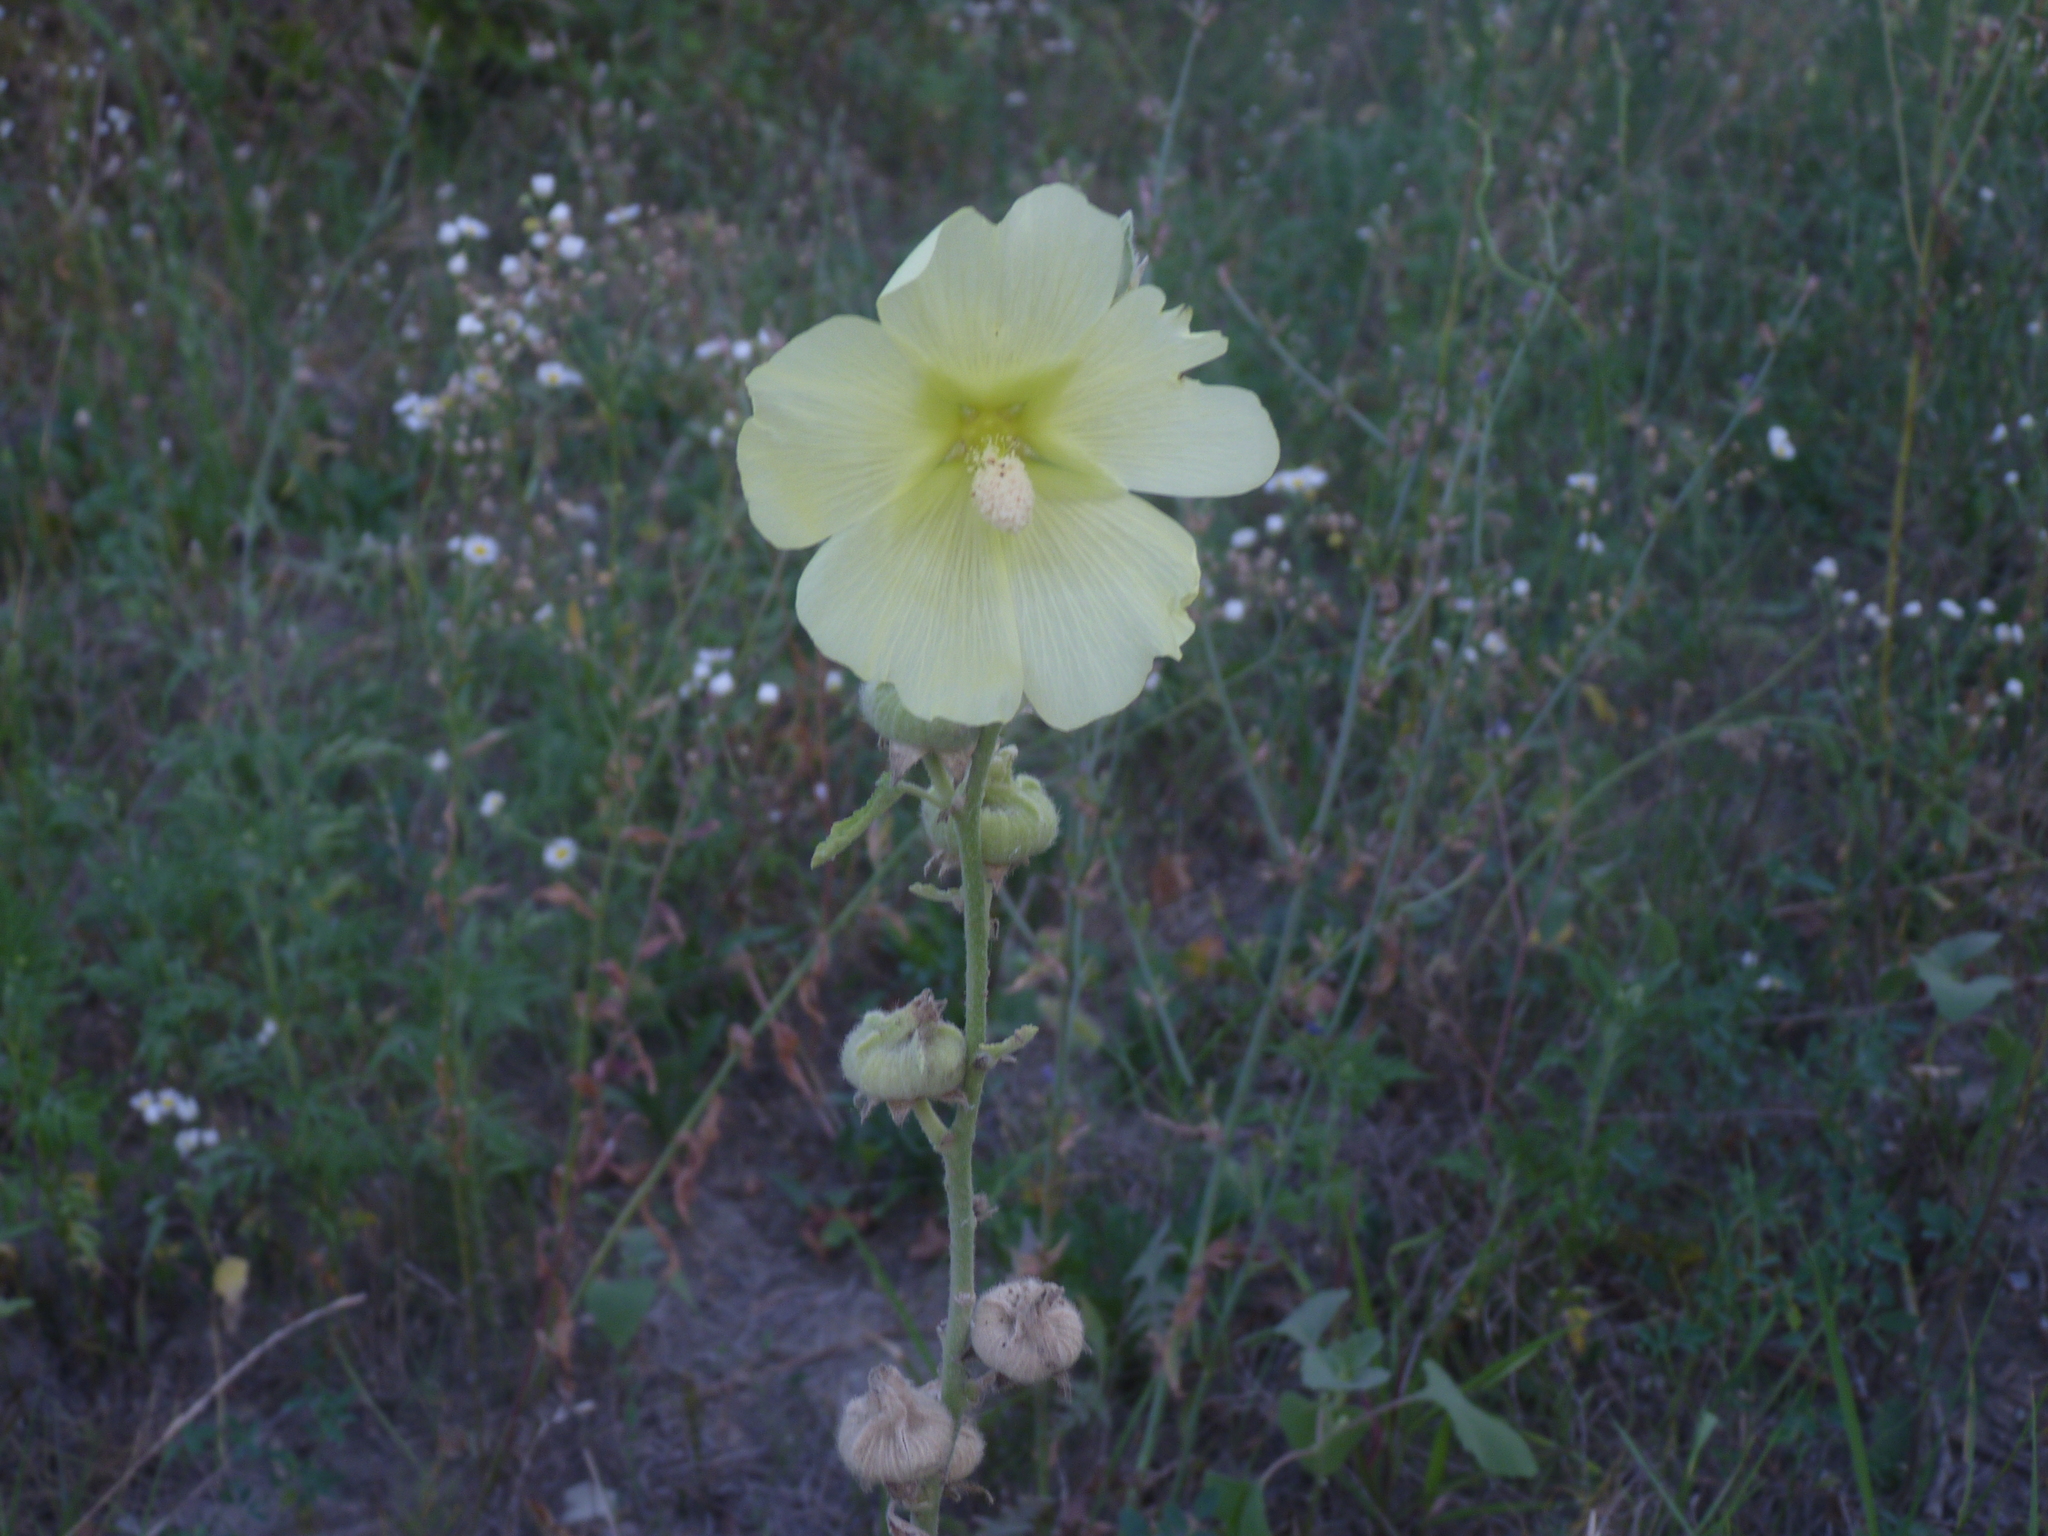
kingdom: Plantae
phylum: Tracheophyta
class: Magnoliopsida
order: Malvales
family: Malvaceae
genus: Alcea
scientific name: Alcea rosea
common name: Hollyhock
